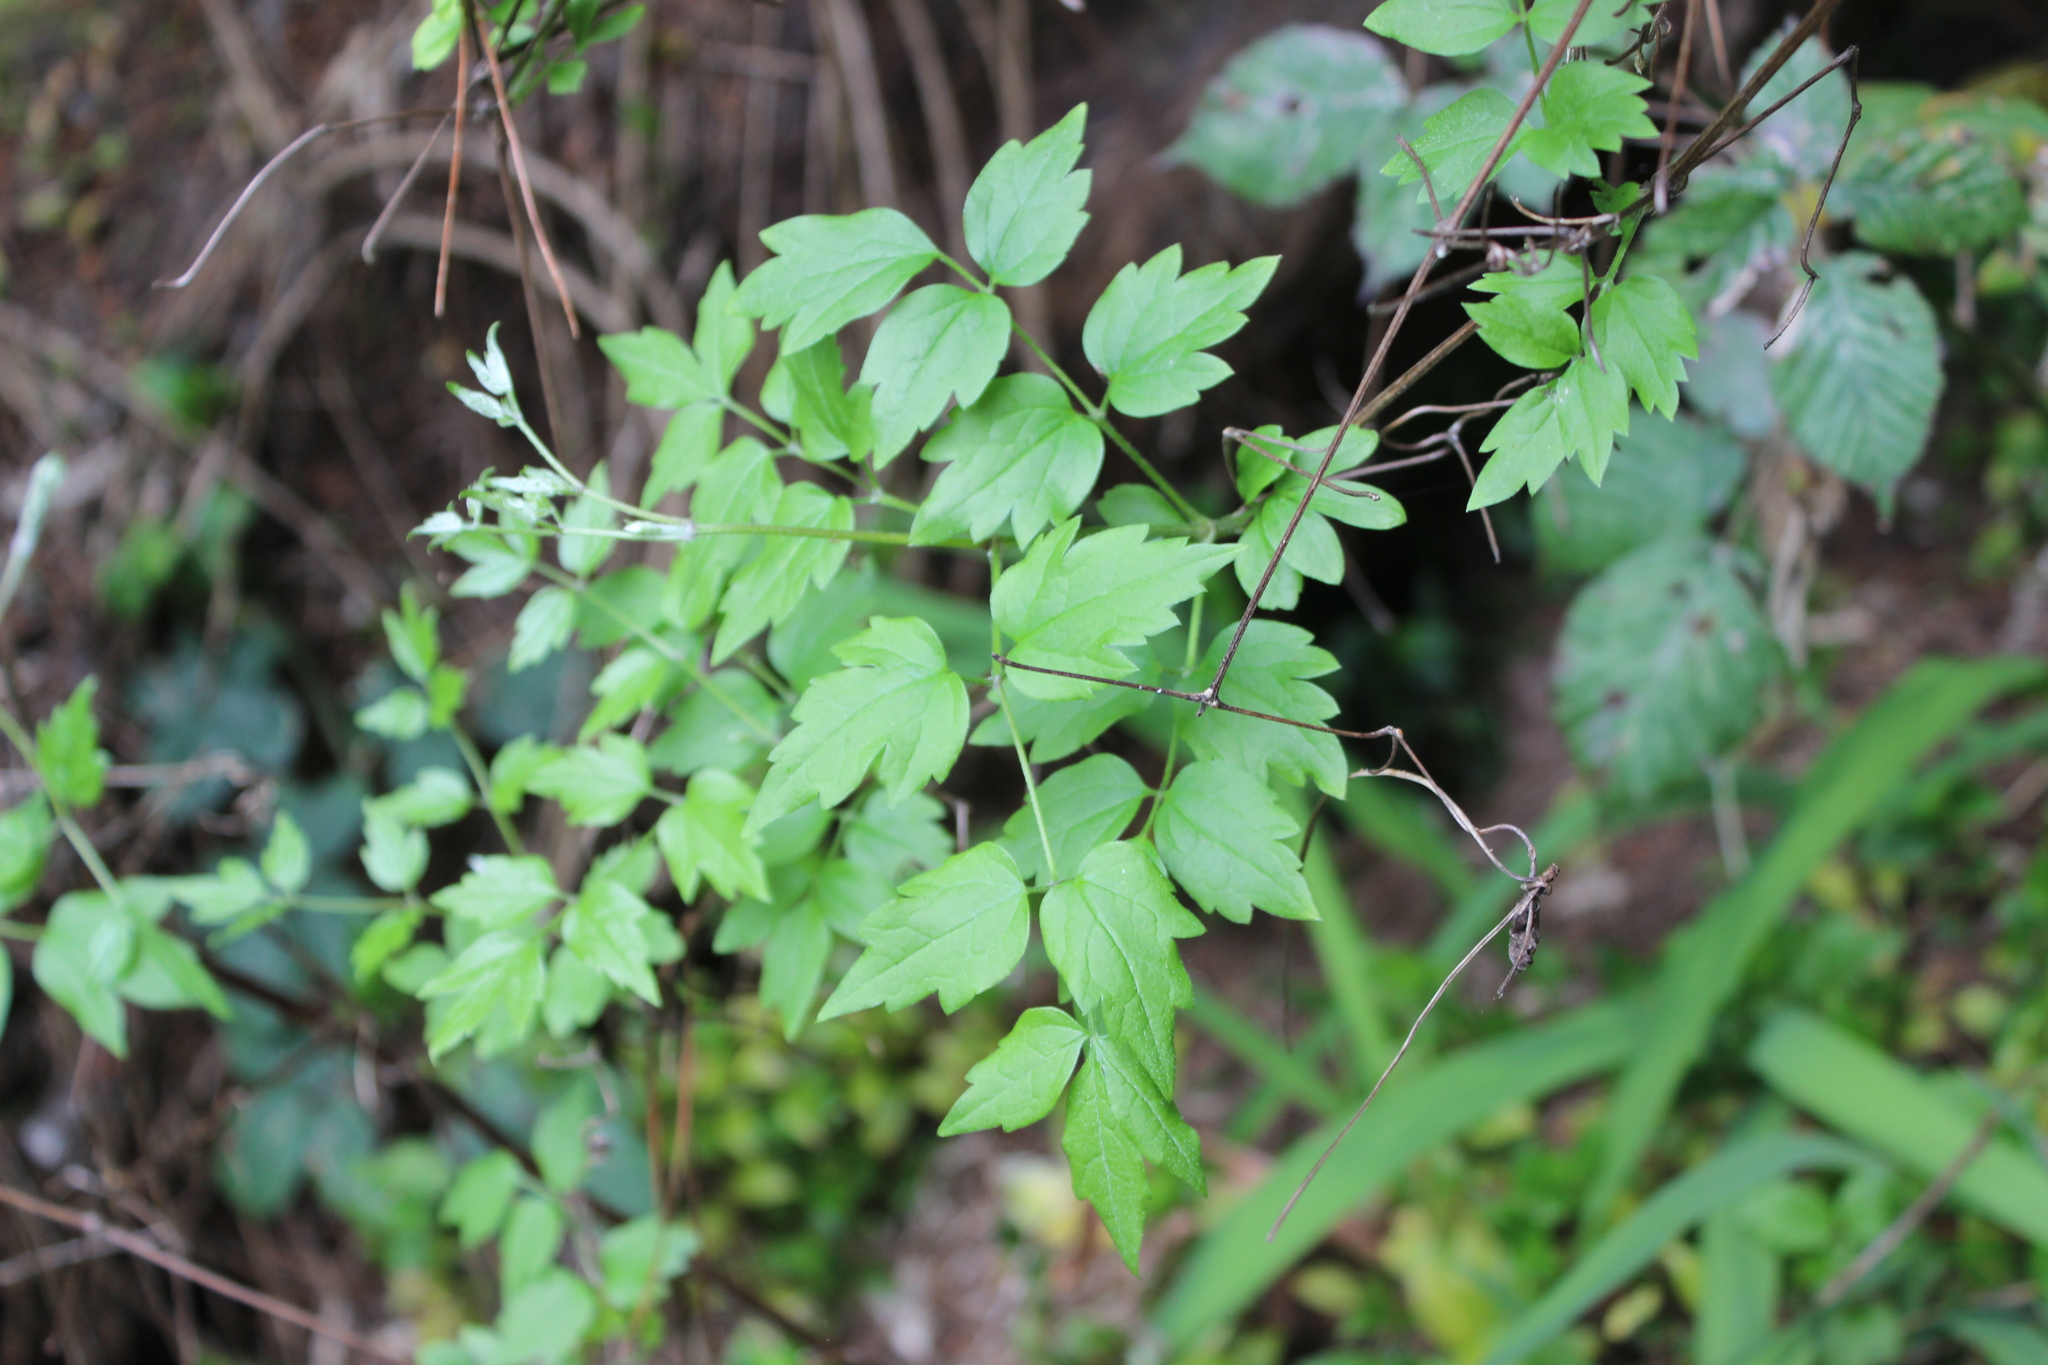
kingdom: Plantae
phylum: Tracheophyta
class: Magnoliopsida
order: Ranunculales
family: Ranunculaceae
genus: Clematis
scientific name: Clematis vitalba
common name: Evergreen clematis
